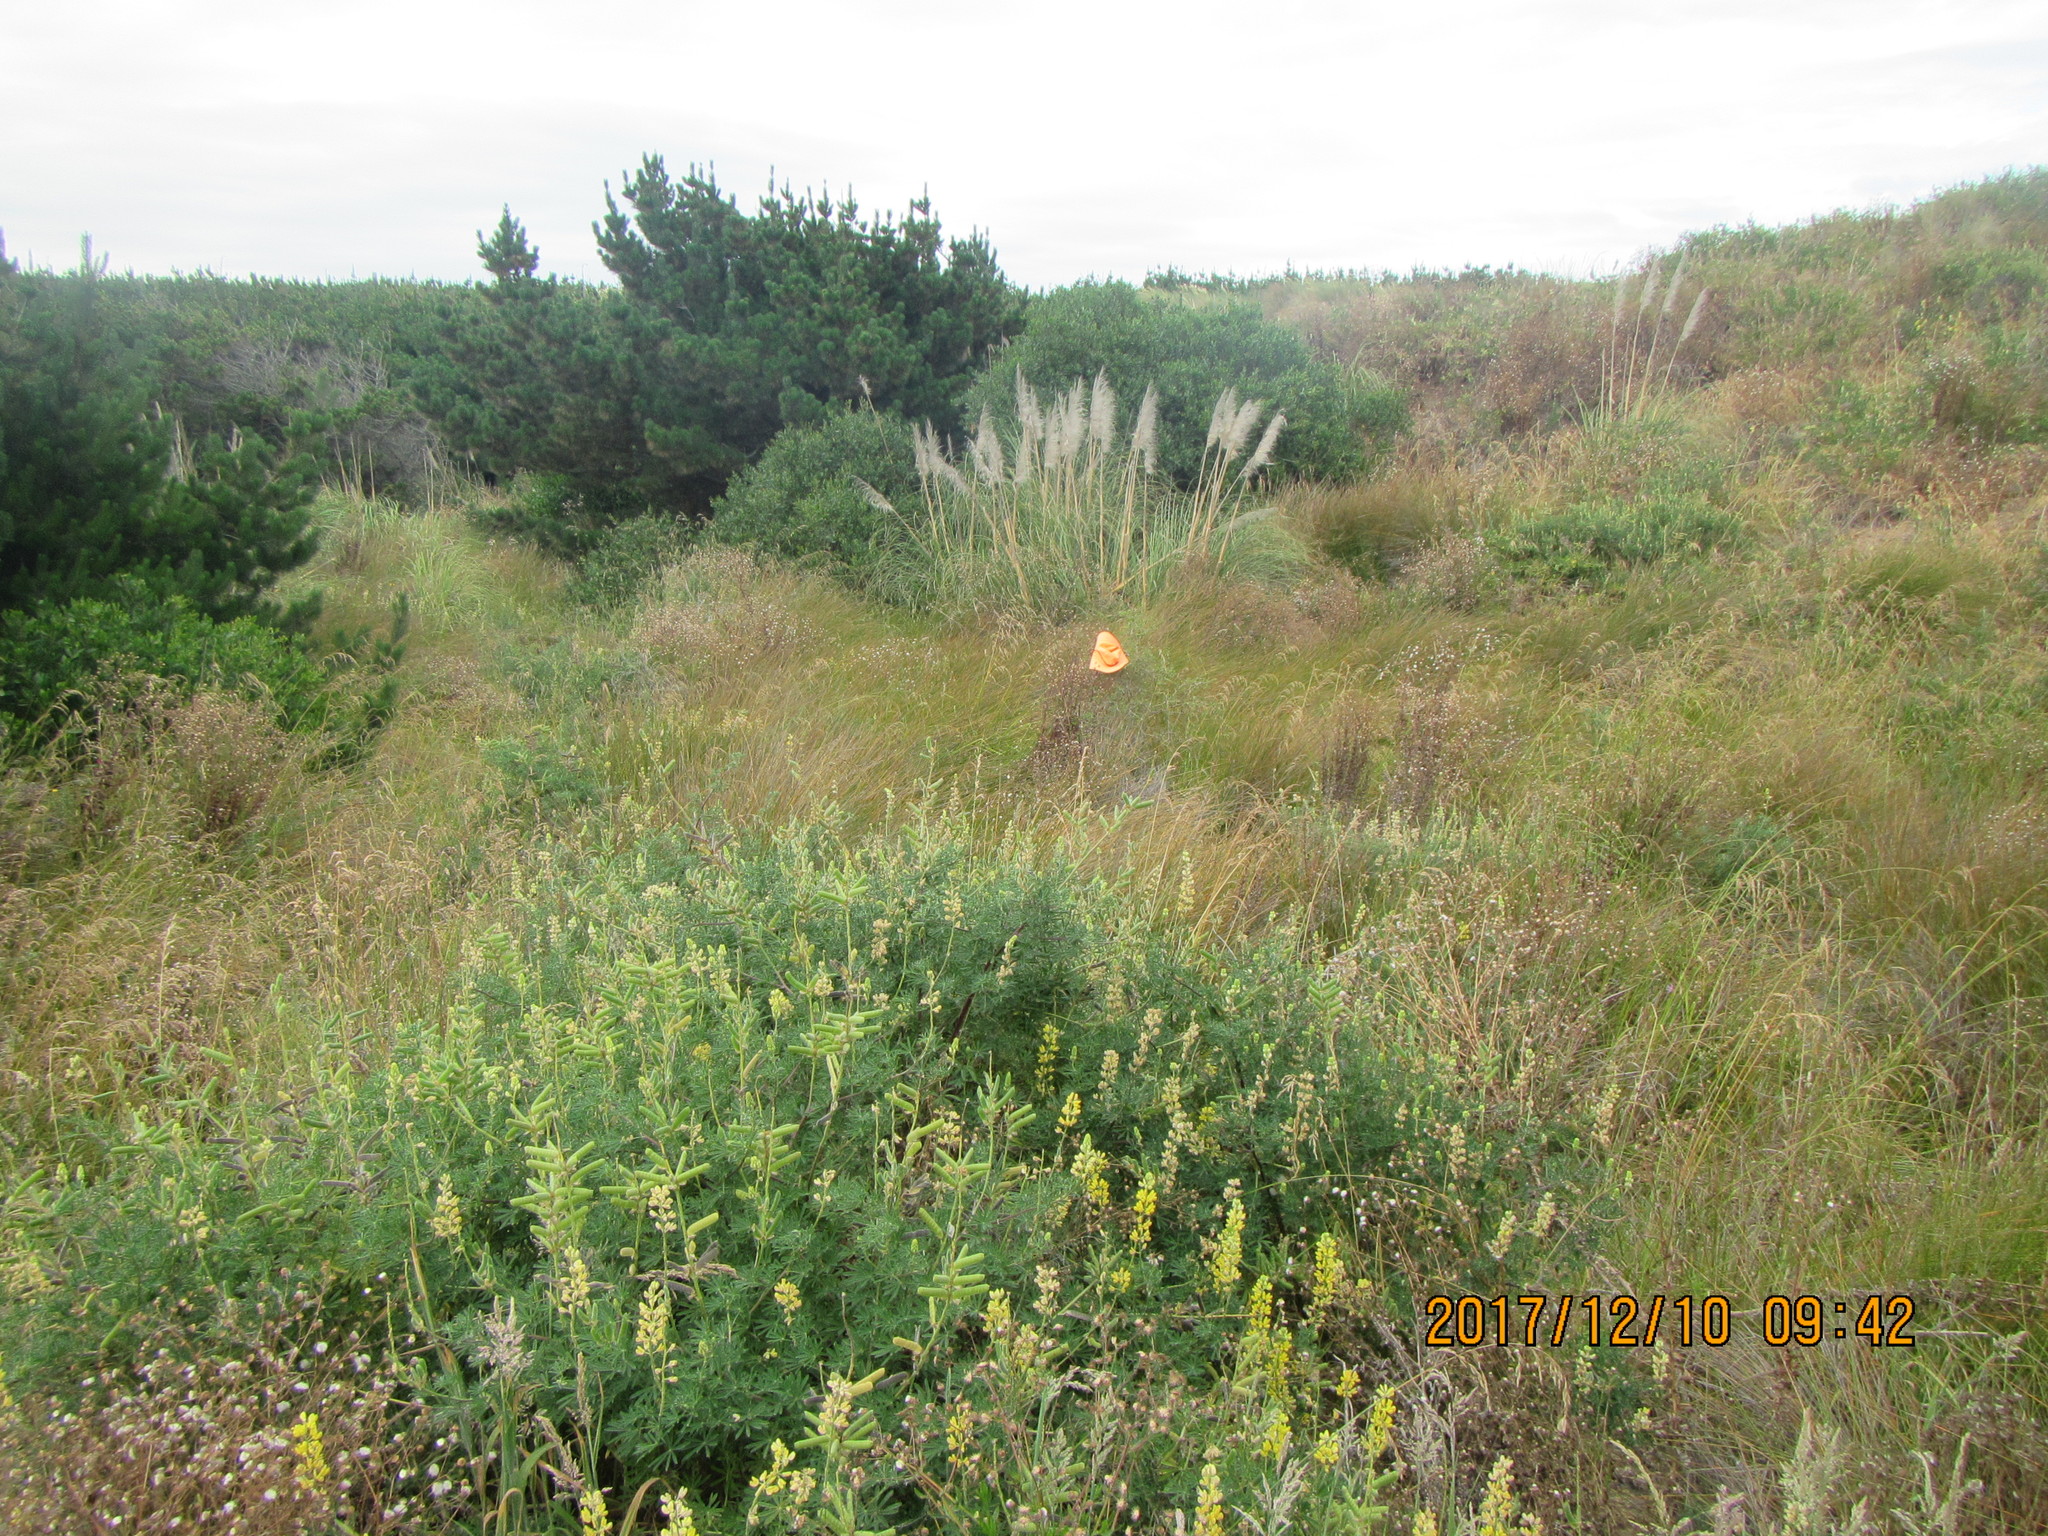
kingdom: Plantae
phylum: Tracheophyta
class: Magnoliopsida
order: Solanales
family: Solanaceae
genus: Lycium
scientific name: Lycium ferocissimum
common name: African boxthorn
